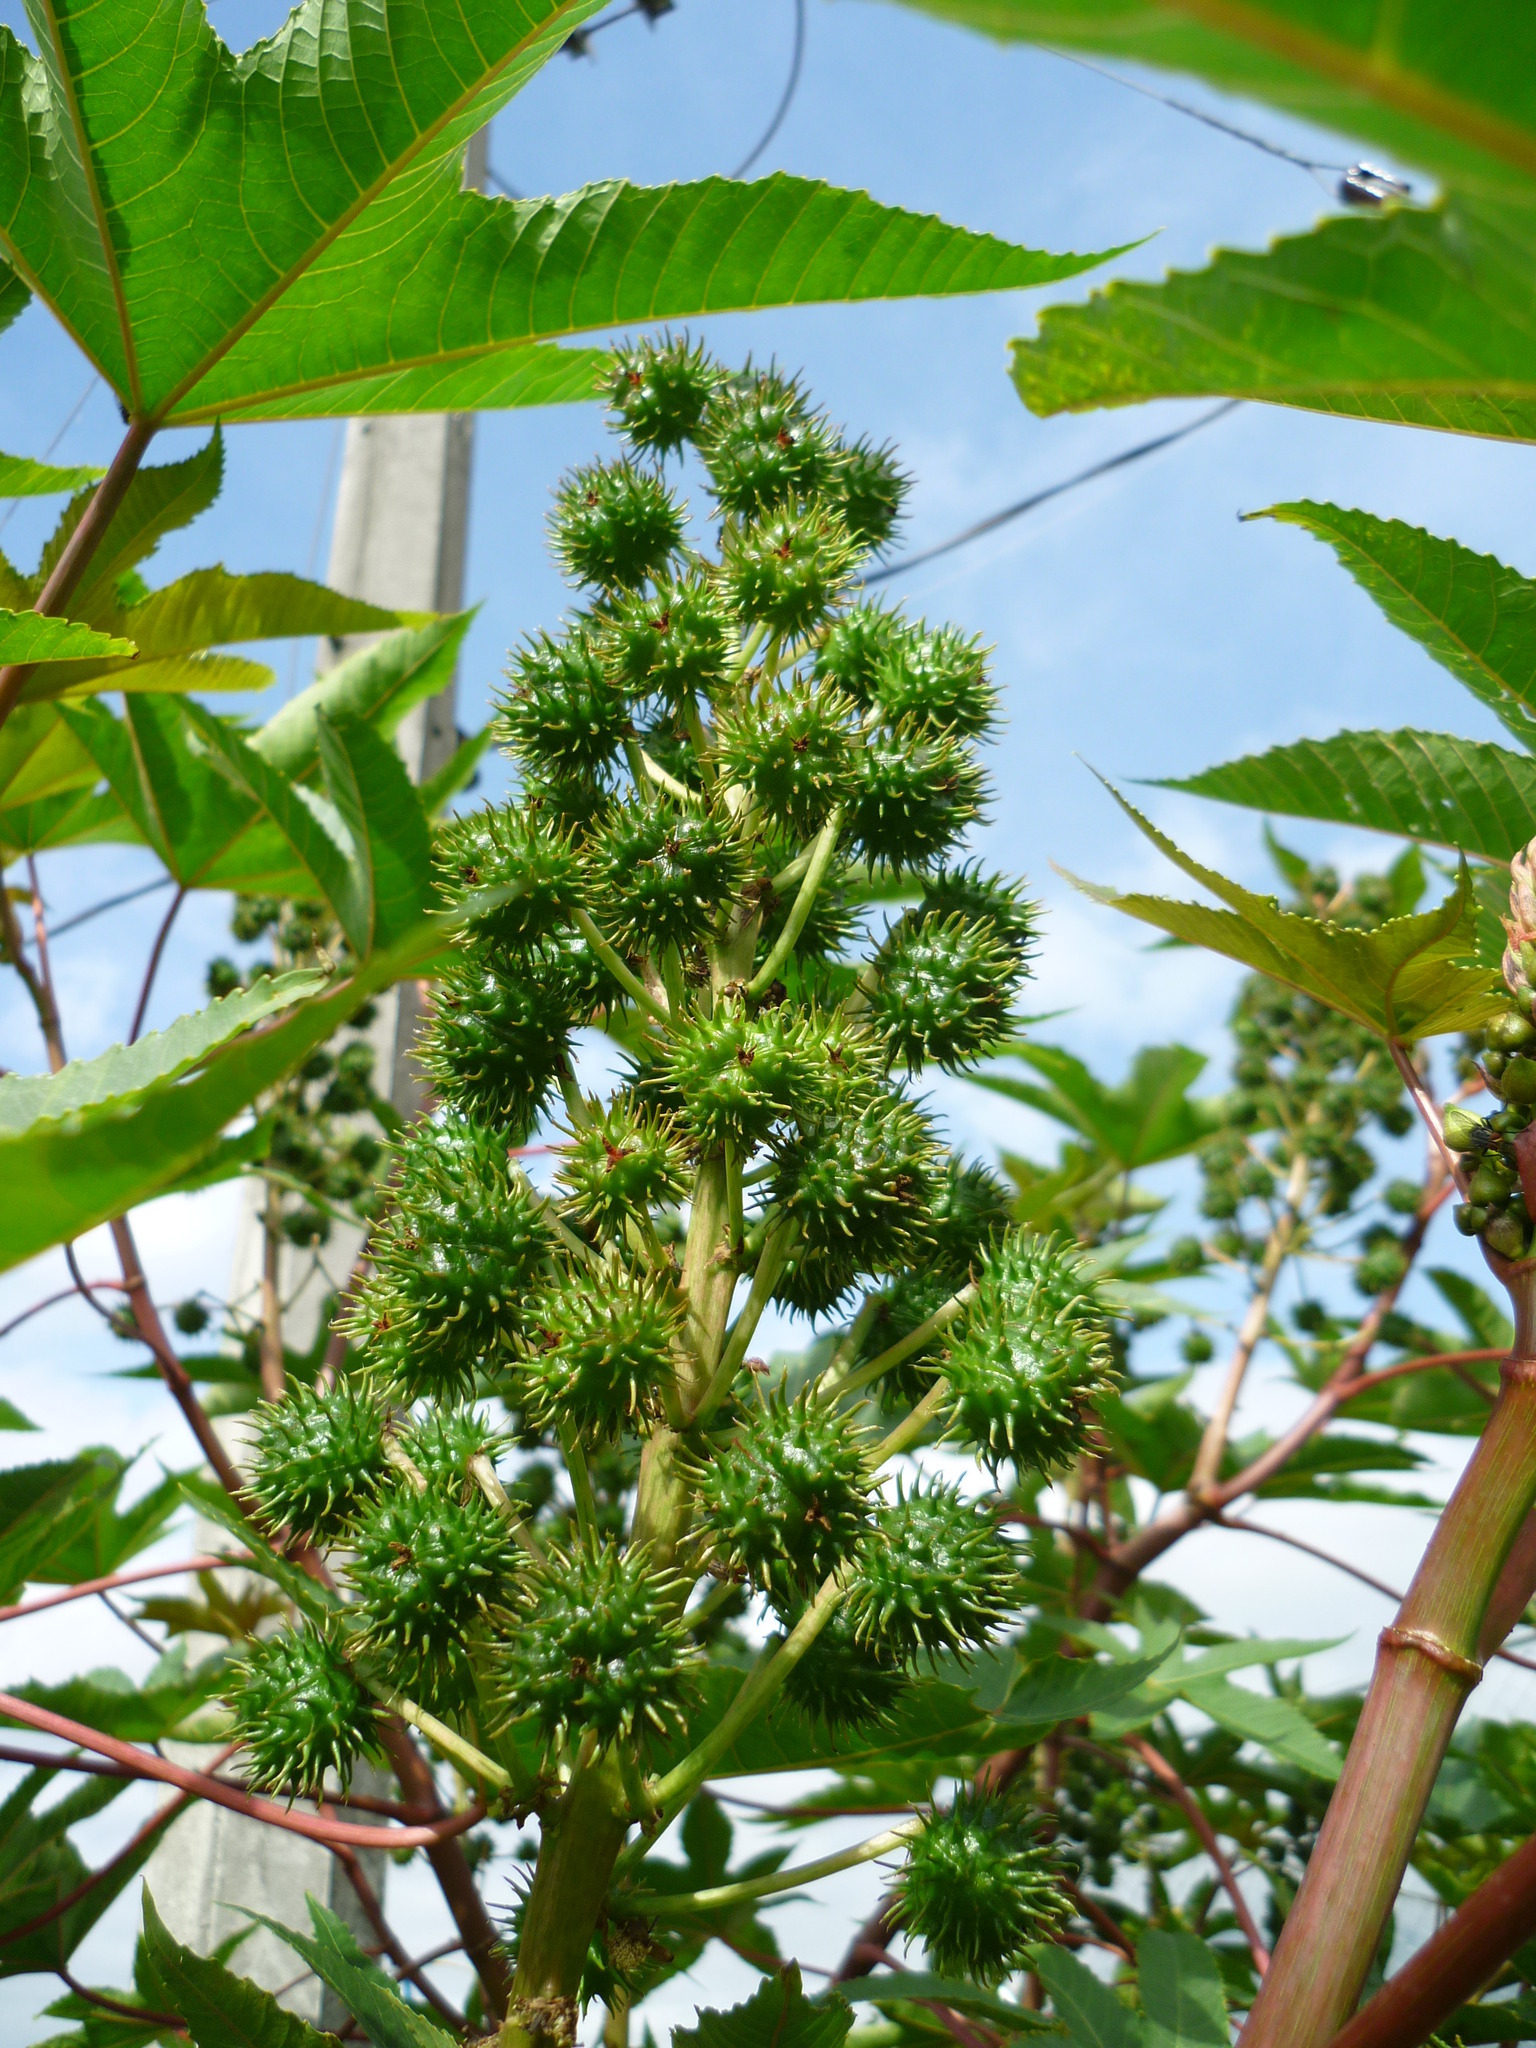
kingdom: Plantae
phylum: Tracheophyta
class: Magnoliopsida
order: Malpighiales
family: Euphorbiaceae
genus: Ricinus
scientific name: Ricinus communis
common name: Castor-oil-plant
